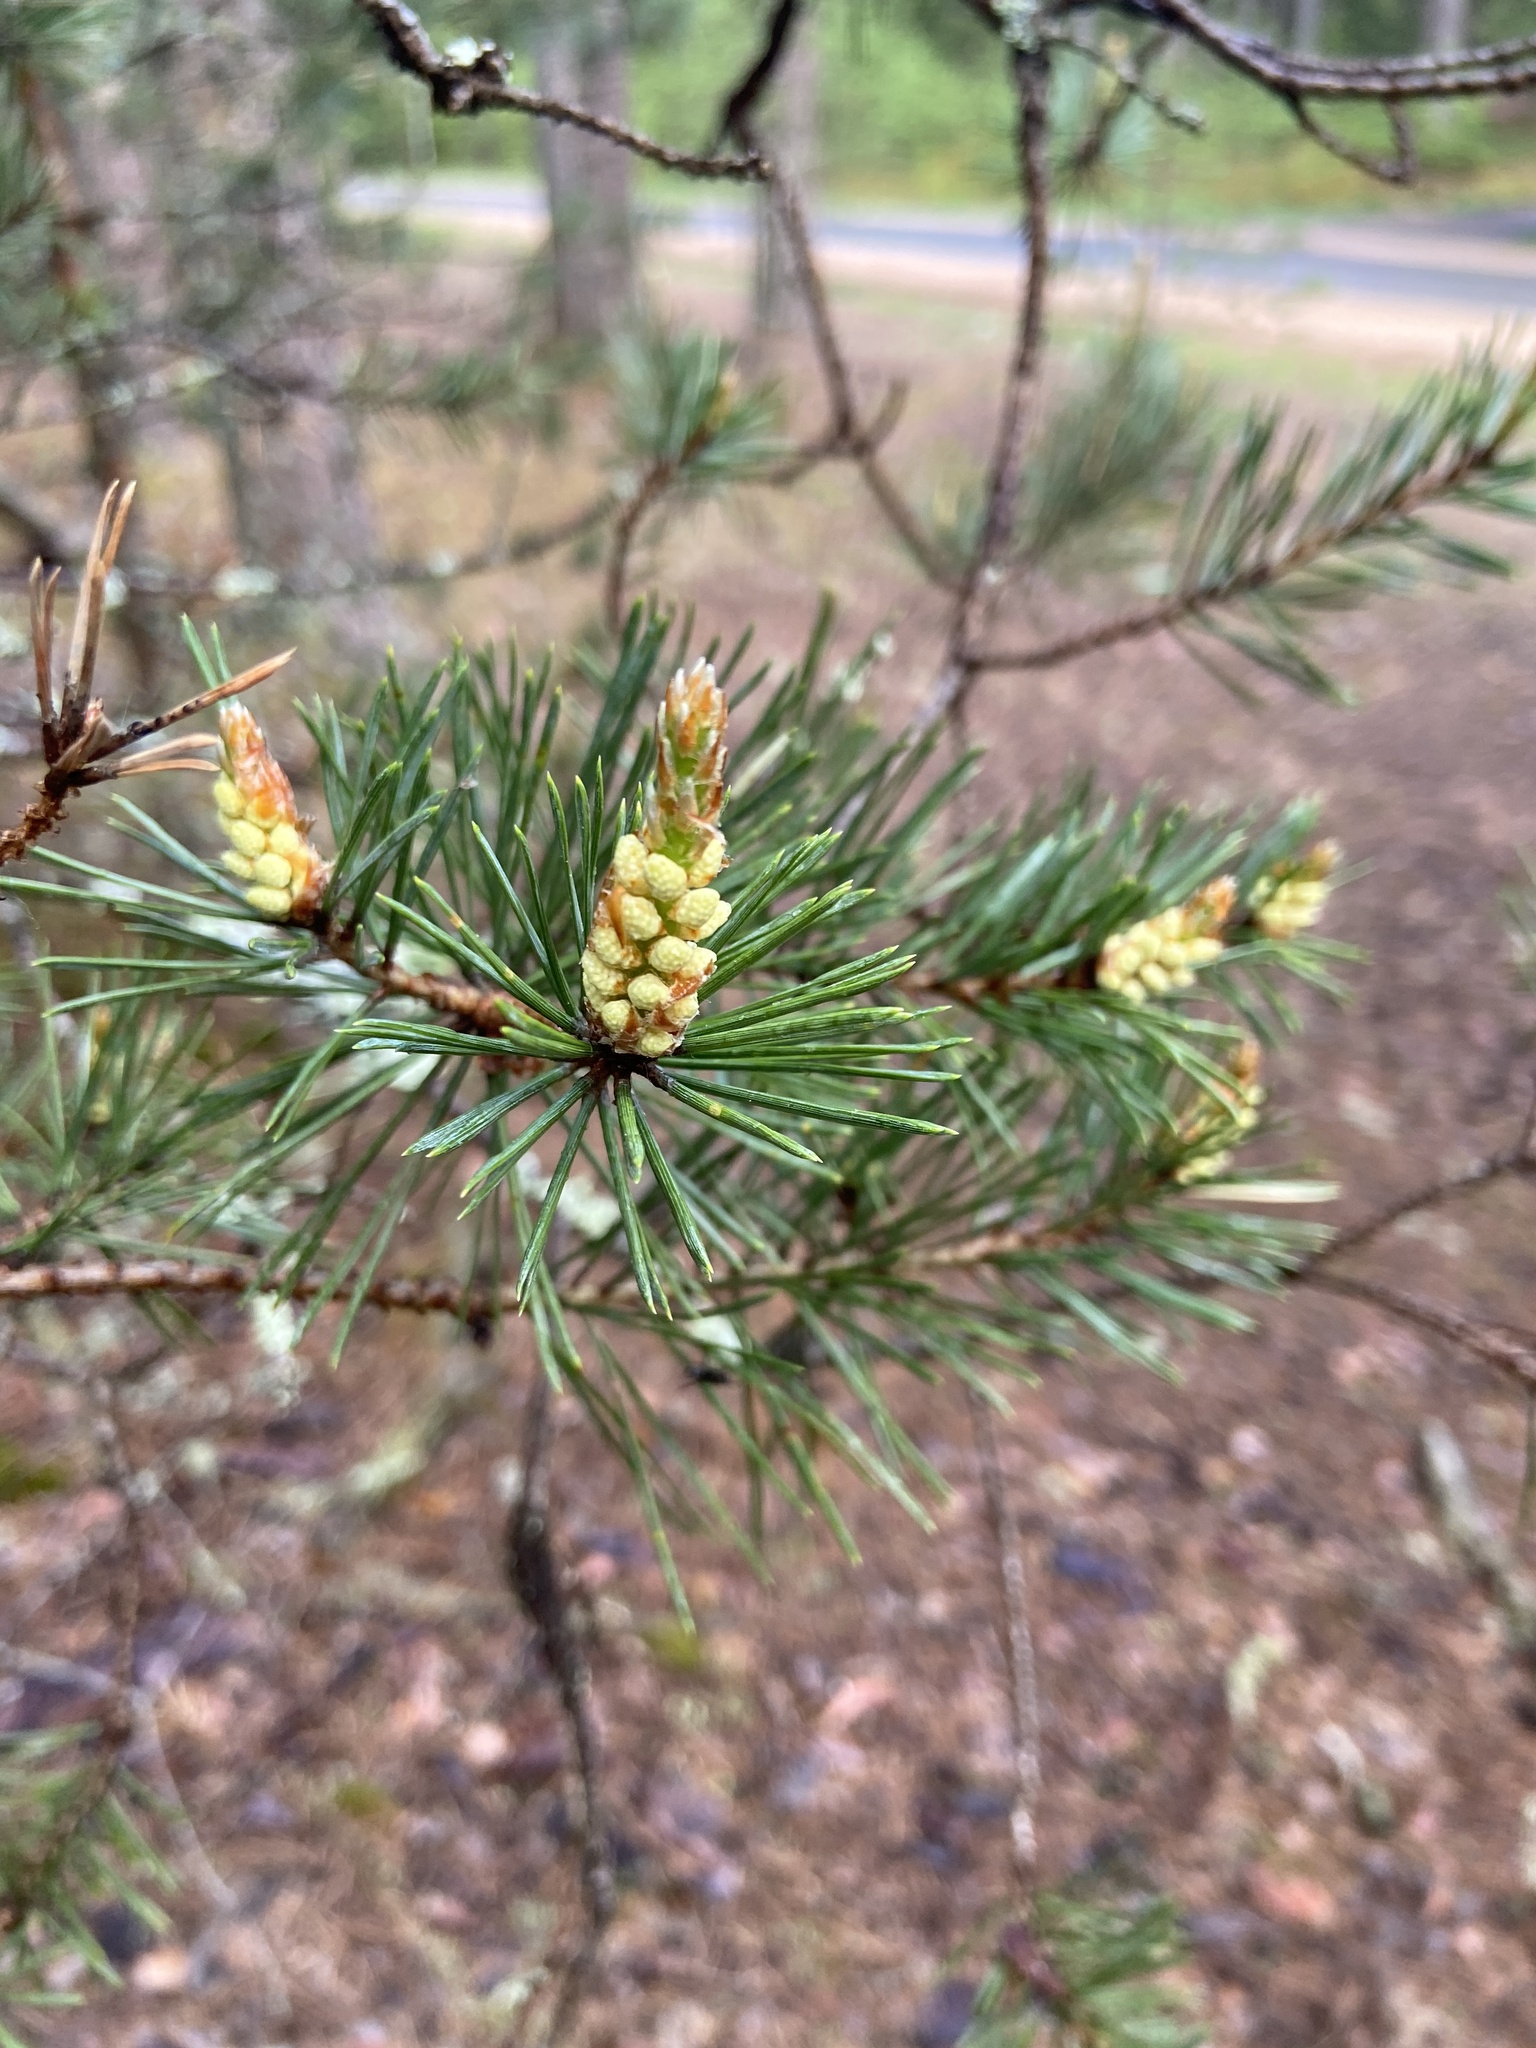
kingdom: Plantae
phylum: Tracheophyta
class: Pinopsida
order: Pinales
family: Pinaceae
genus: Pinus
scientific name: Pinus sylvestris
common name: Scots pine
